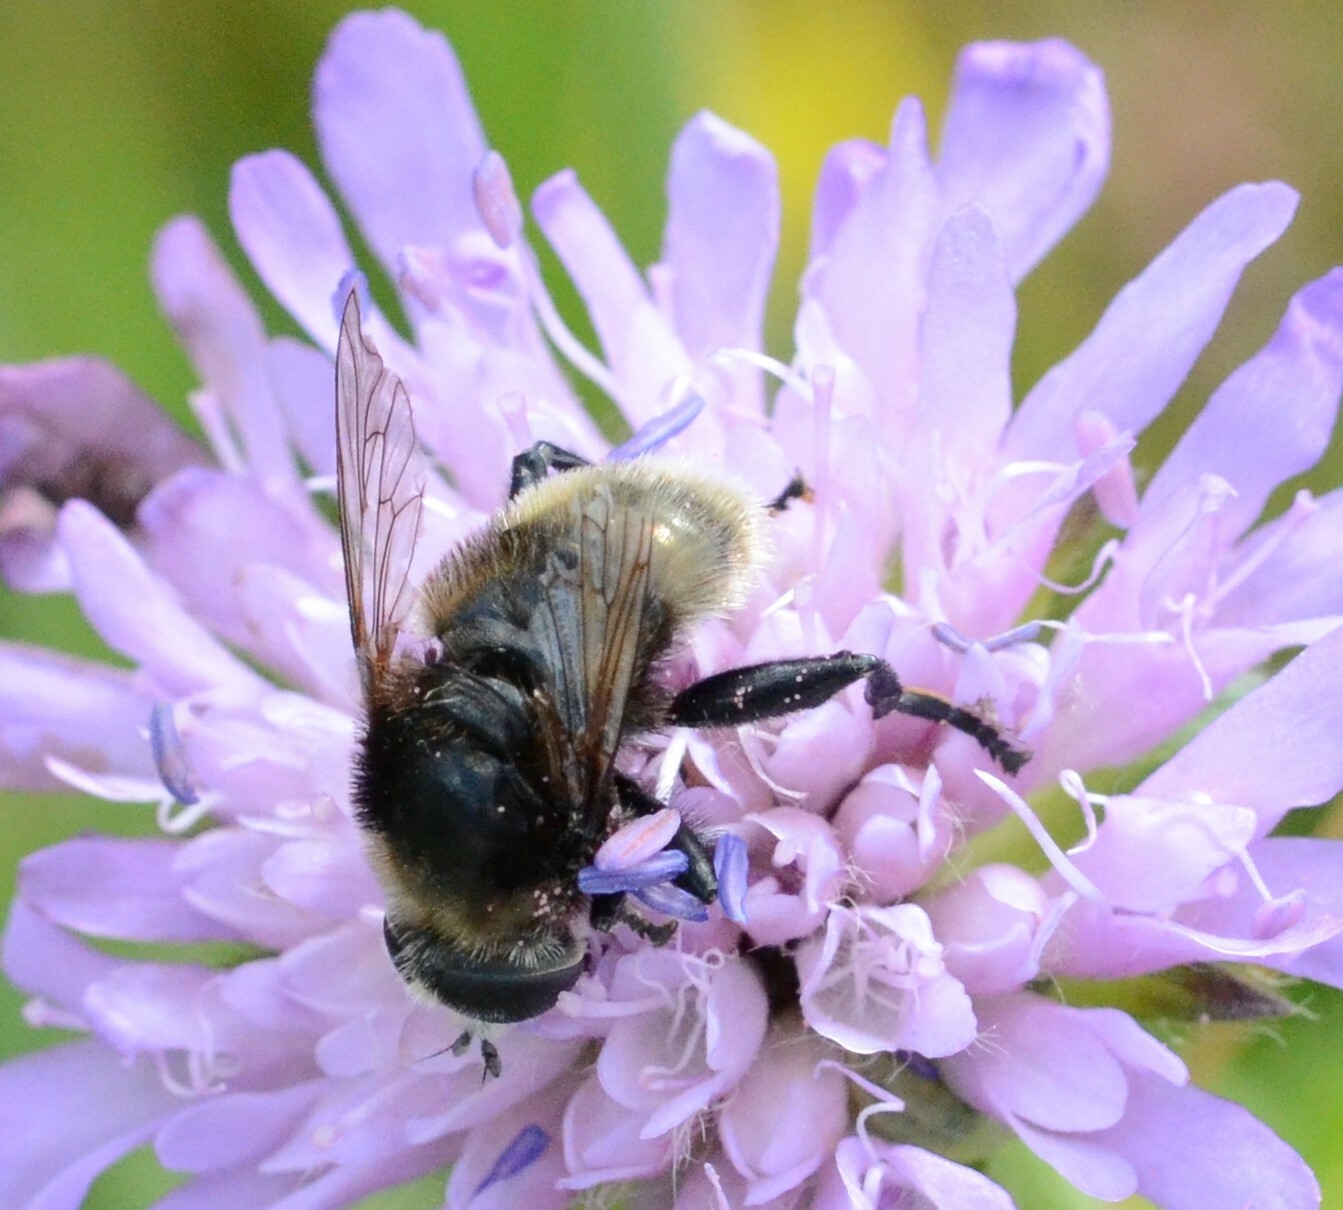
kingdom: Animalia
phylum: Arthropoda
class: Insecta
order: Diptera
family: Syrphidae
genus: Merodon
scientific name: Merodon equestris
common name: Greater bulb-fly
